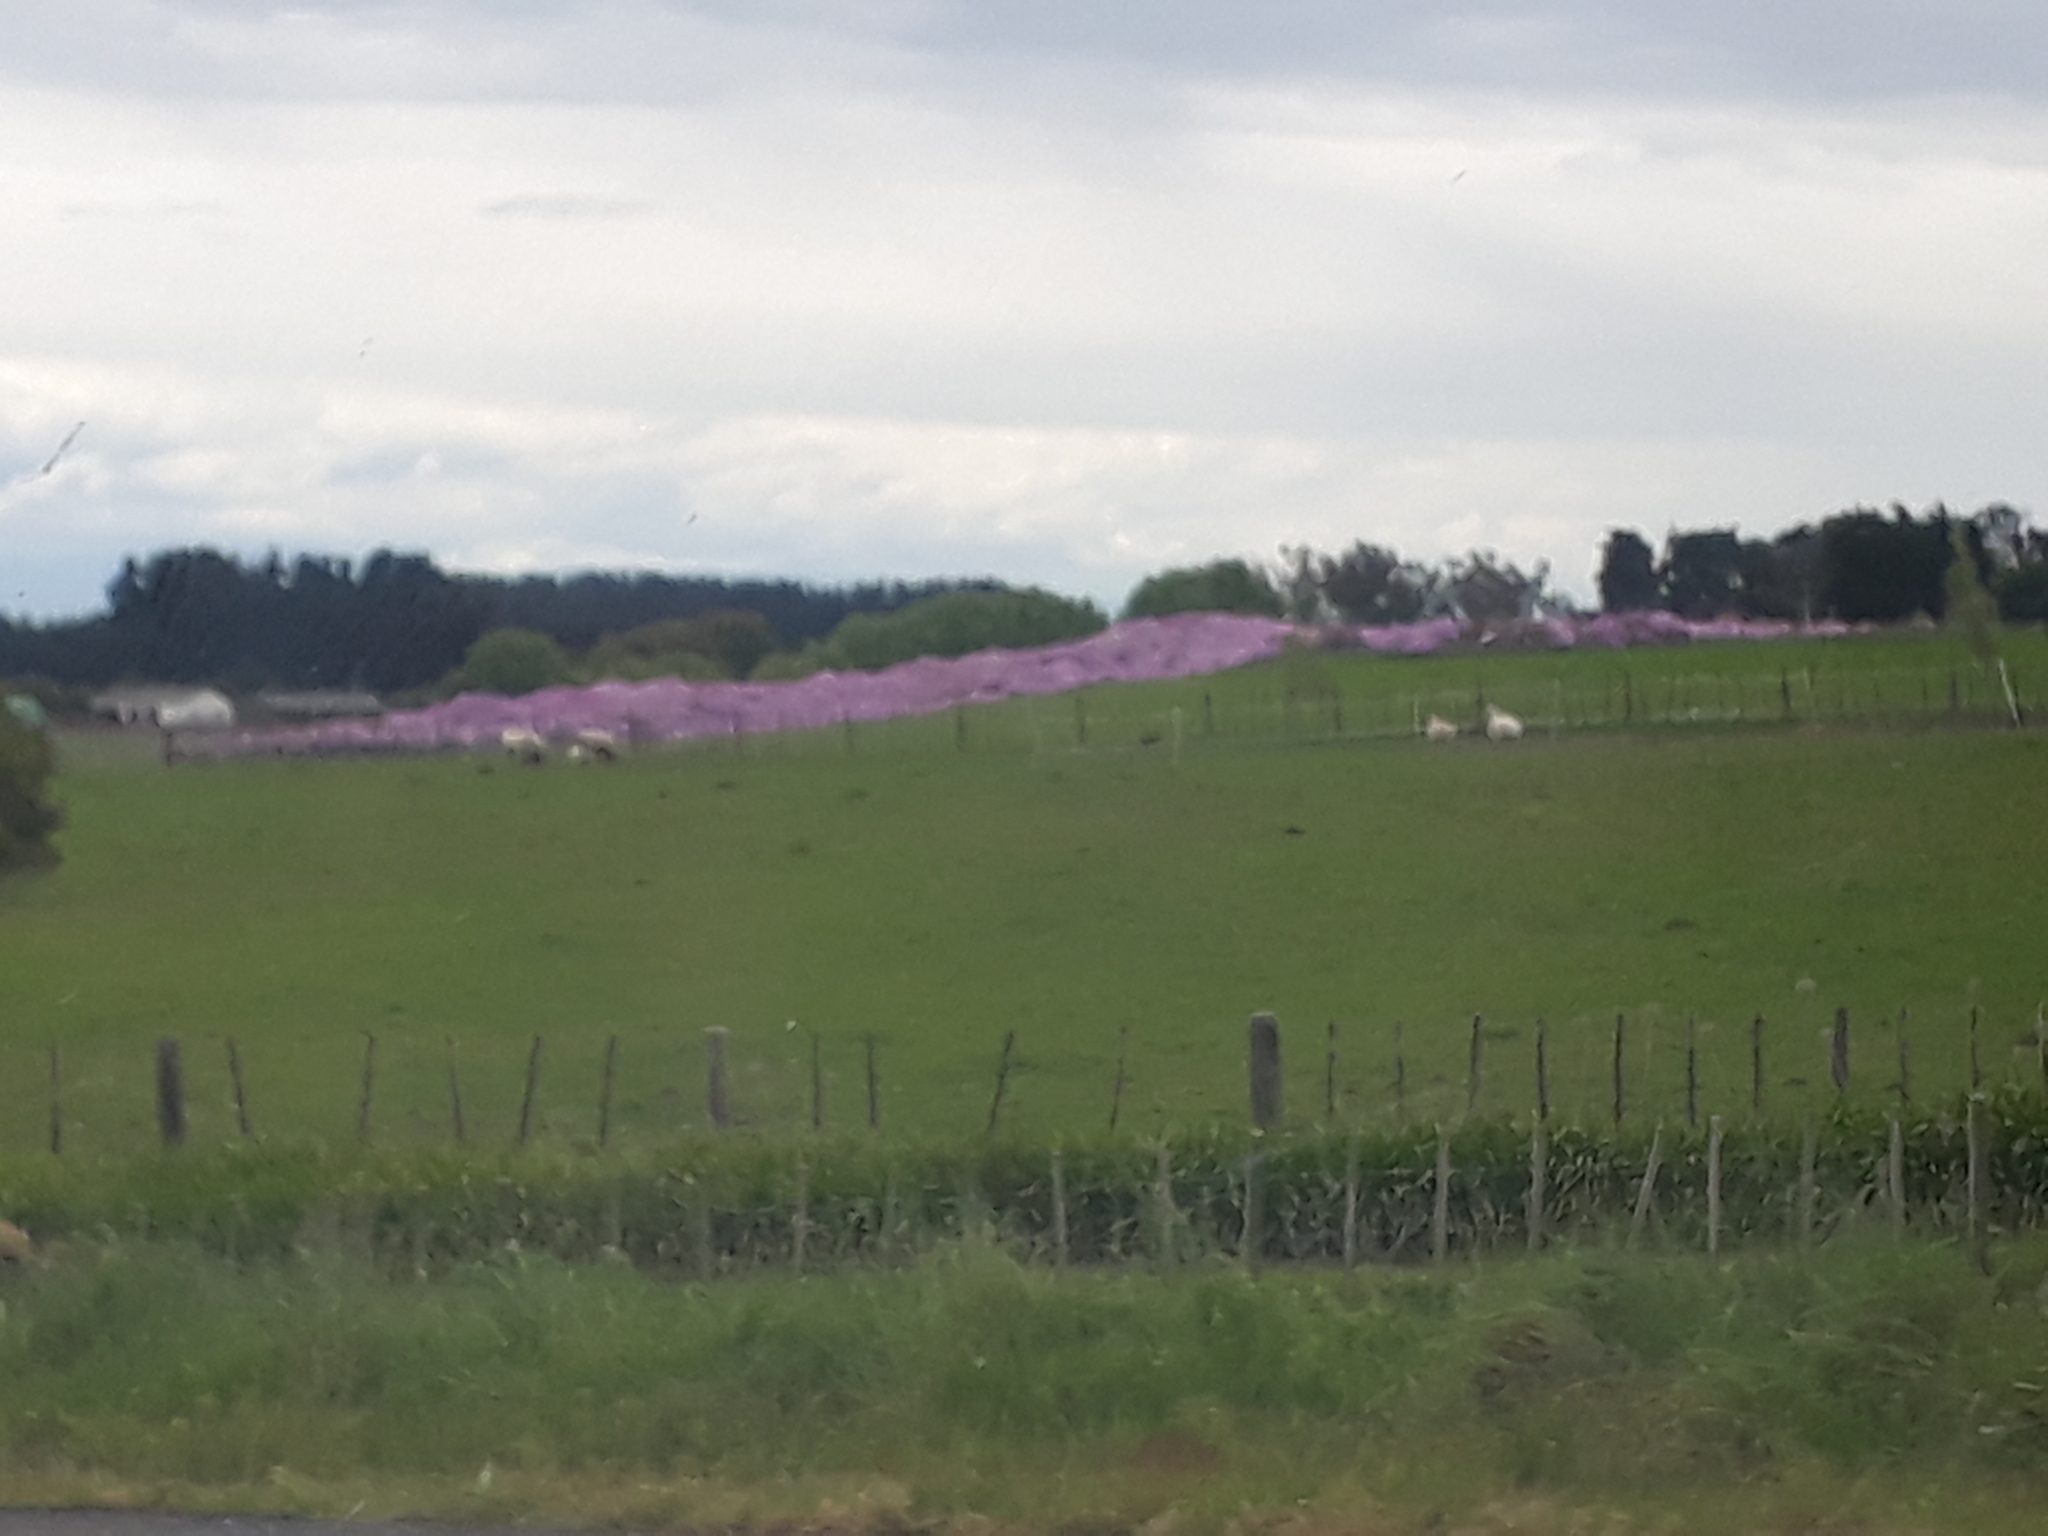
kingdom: Plantae
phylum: Tracheophyta
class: Magnoliopsida
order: Asterales
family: Asteraceae
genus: Senecio
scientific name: Senecio glastifolius
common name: Woad-leaved ragwort
